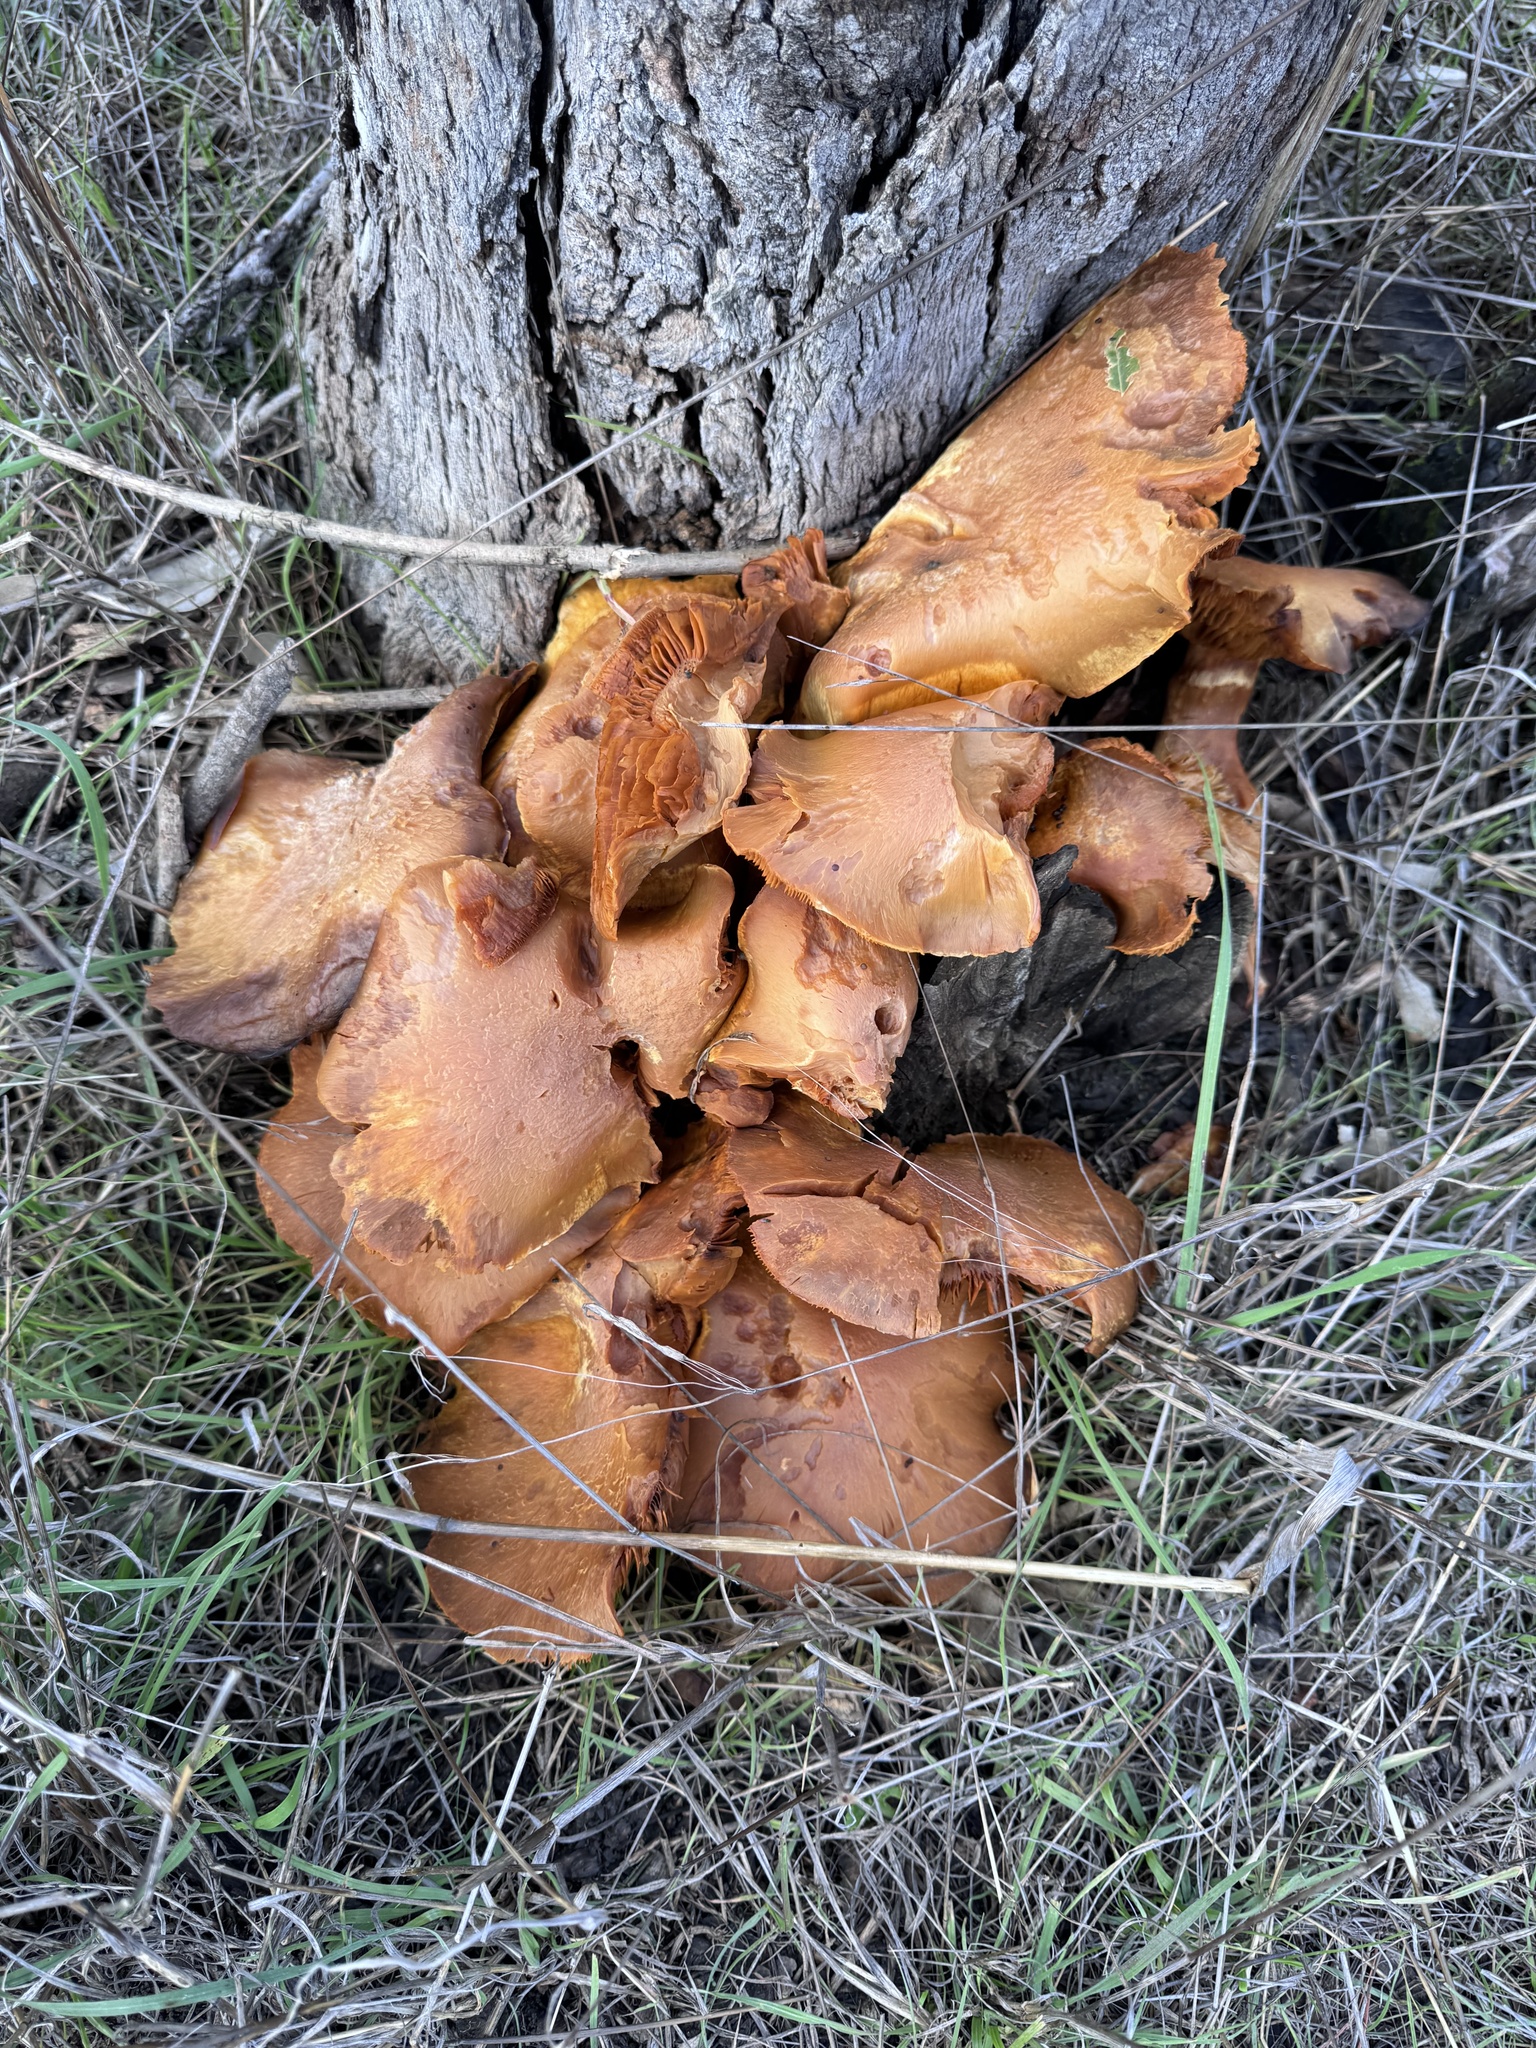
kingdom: Fungi
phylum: Basidiomycota
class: Agaricomycetes
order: Agaricales
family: Hymenogastraceae
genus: Gymnopilus
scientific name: Gymnopilus ventricosus
